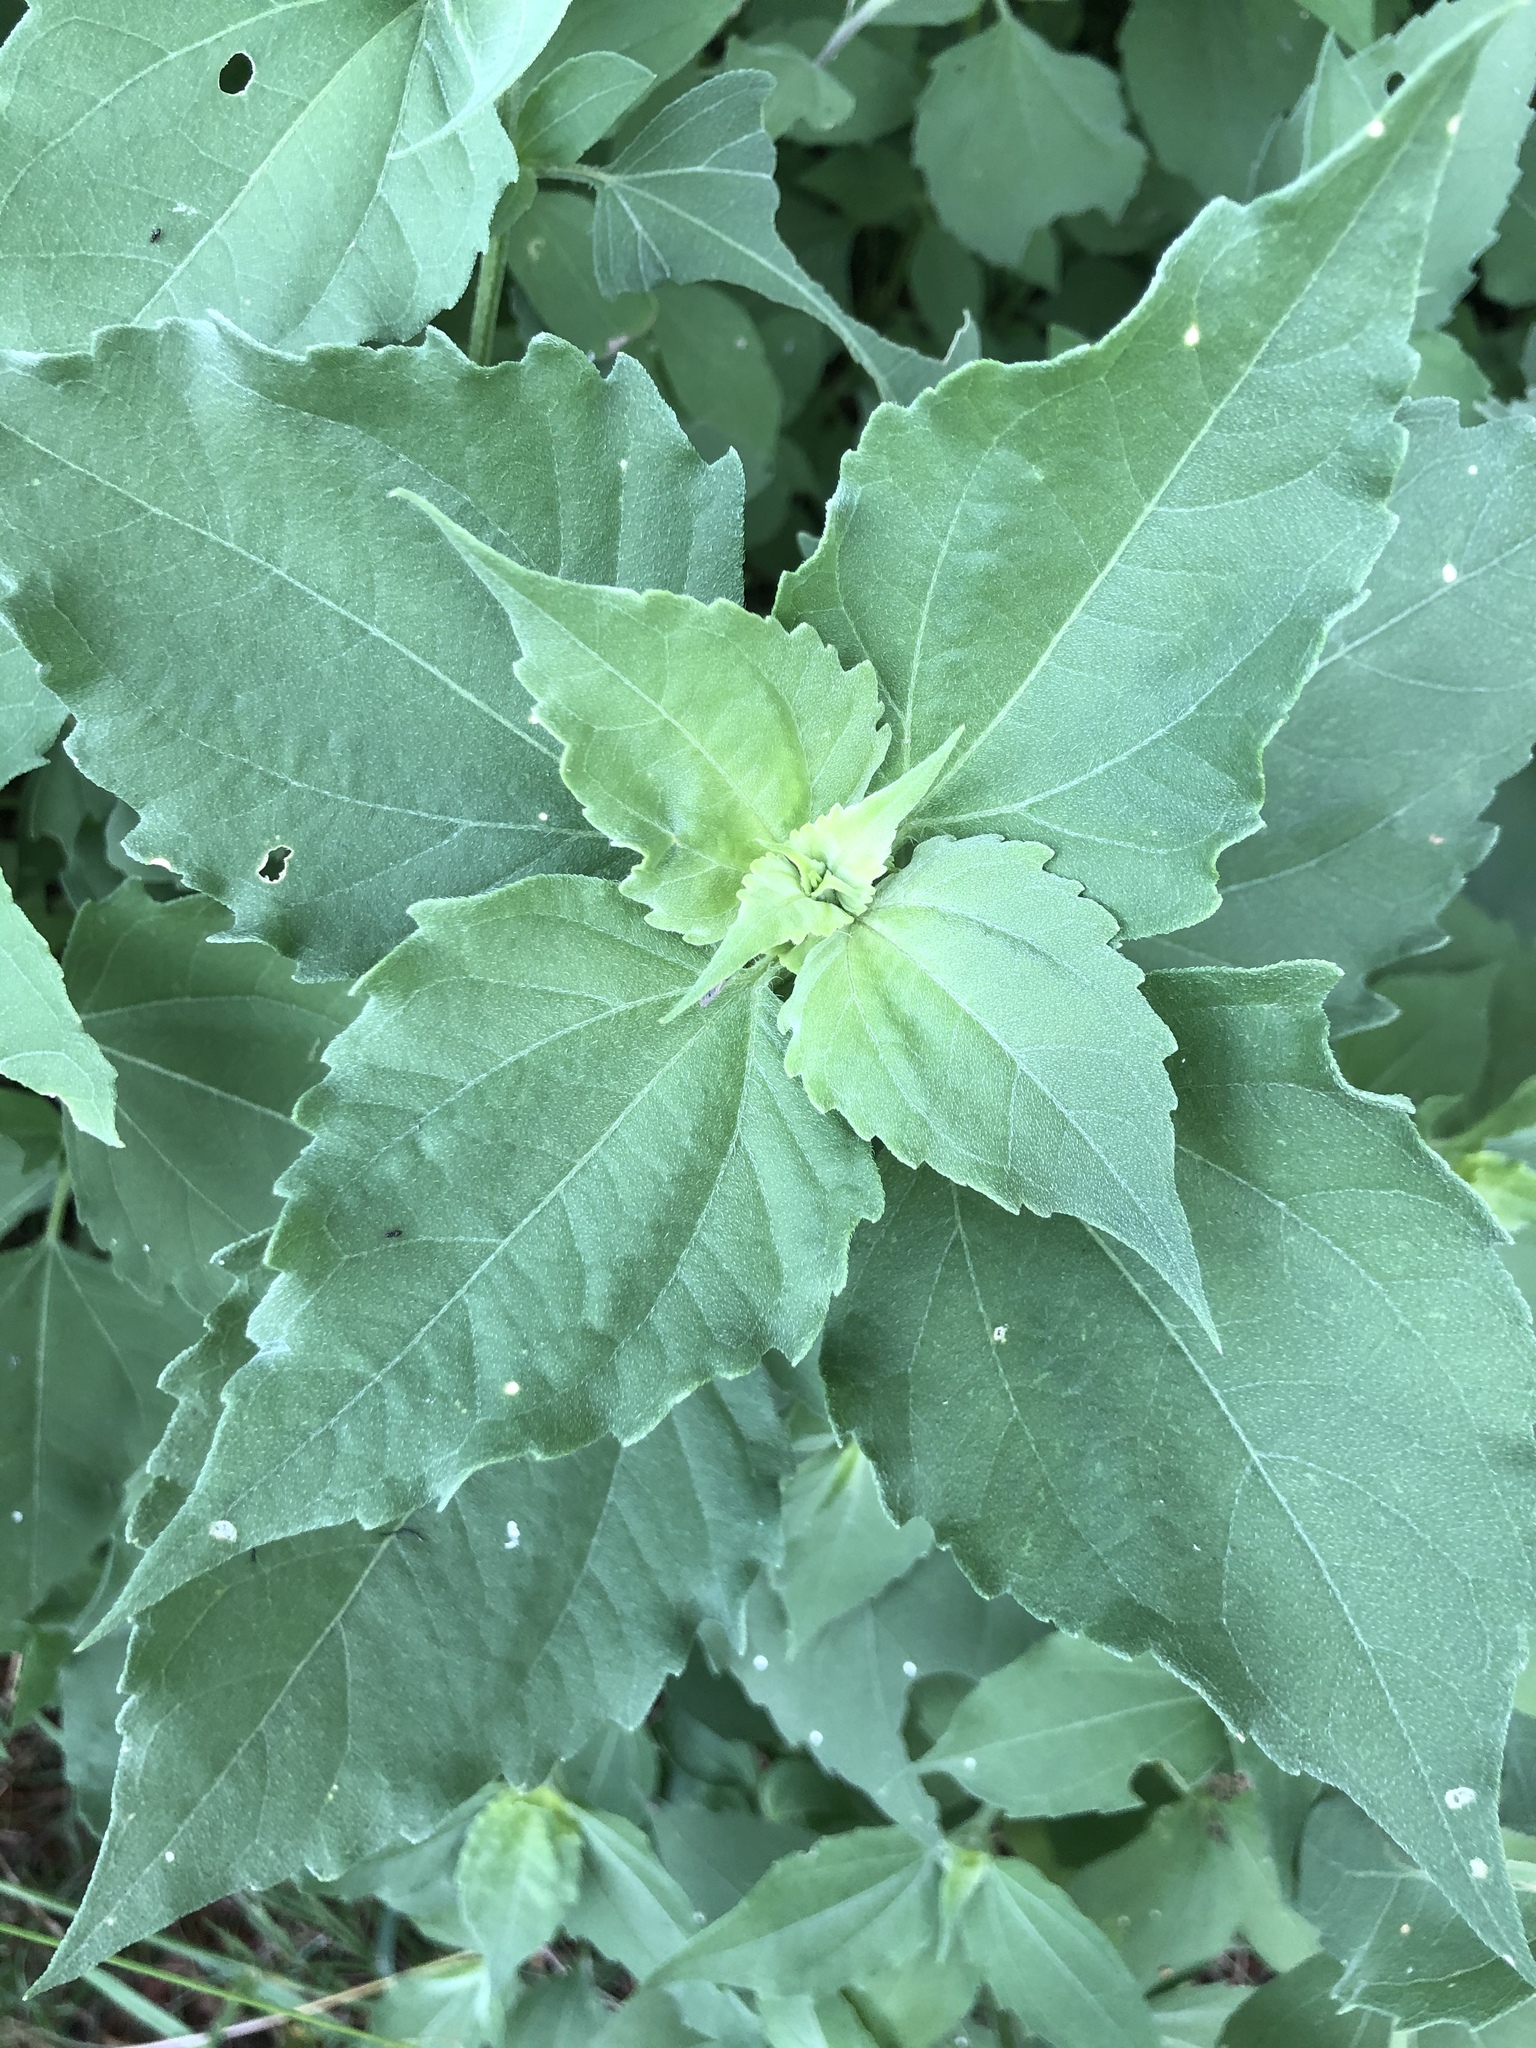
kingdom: Plantae
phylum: Tracheophyta
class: Magnoliopsida
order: Asterales
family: Asteraceae
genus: Iva
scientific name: Iva annua
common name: Marsh-elder
